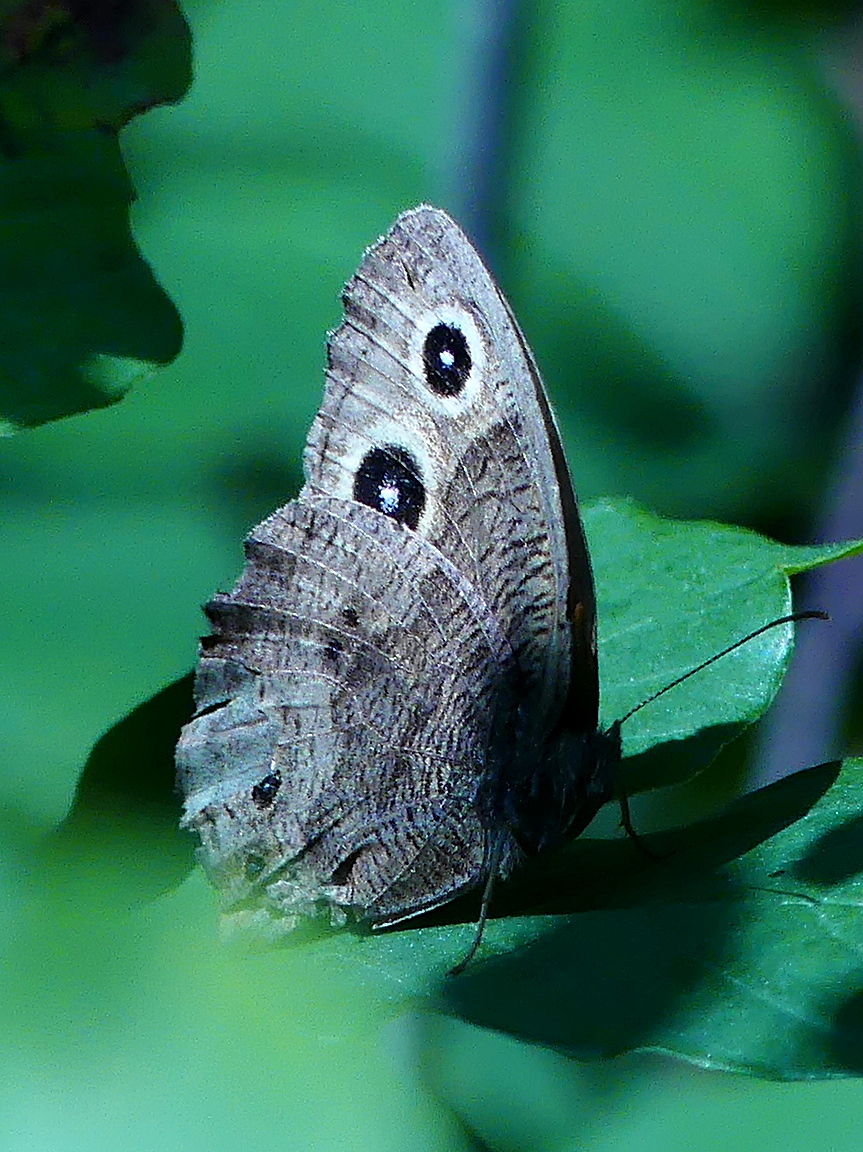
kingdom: Animalia
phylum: Arthropoda
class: Insecta
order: Lepidoptera
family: Nymphalidae
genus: Cercyonis
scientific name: Cercyonis pegala
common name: Common wood-nymph
